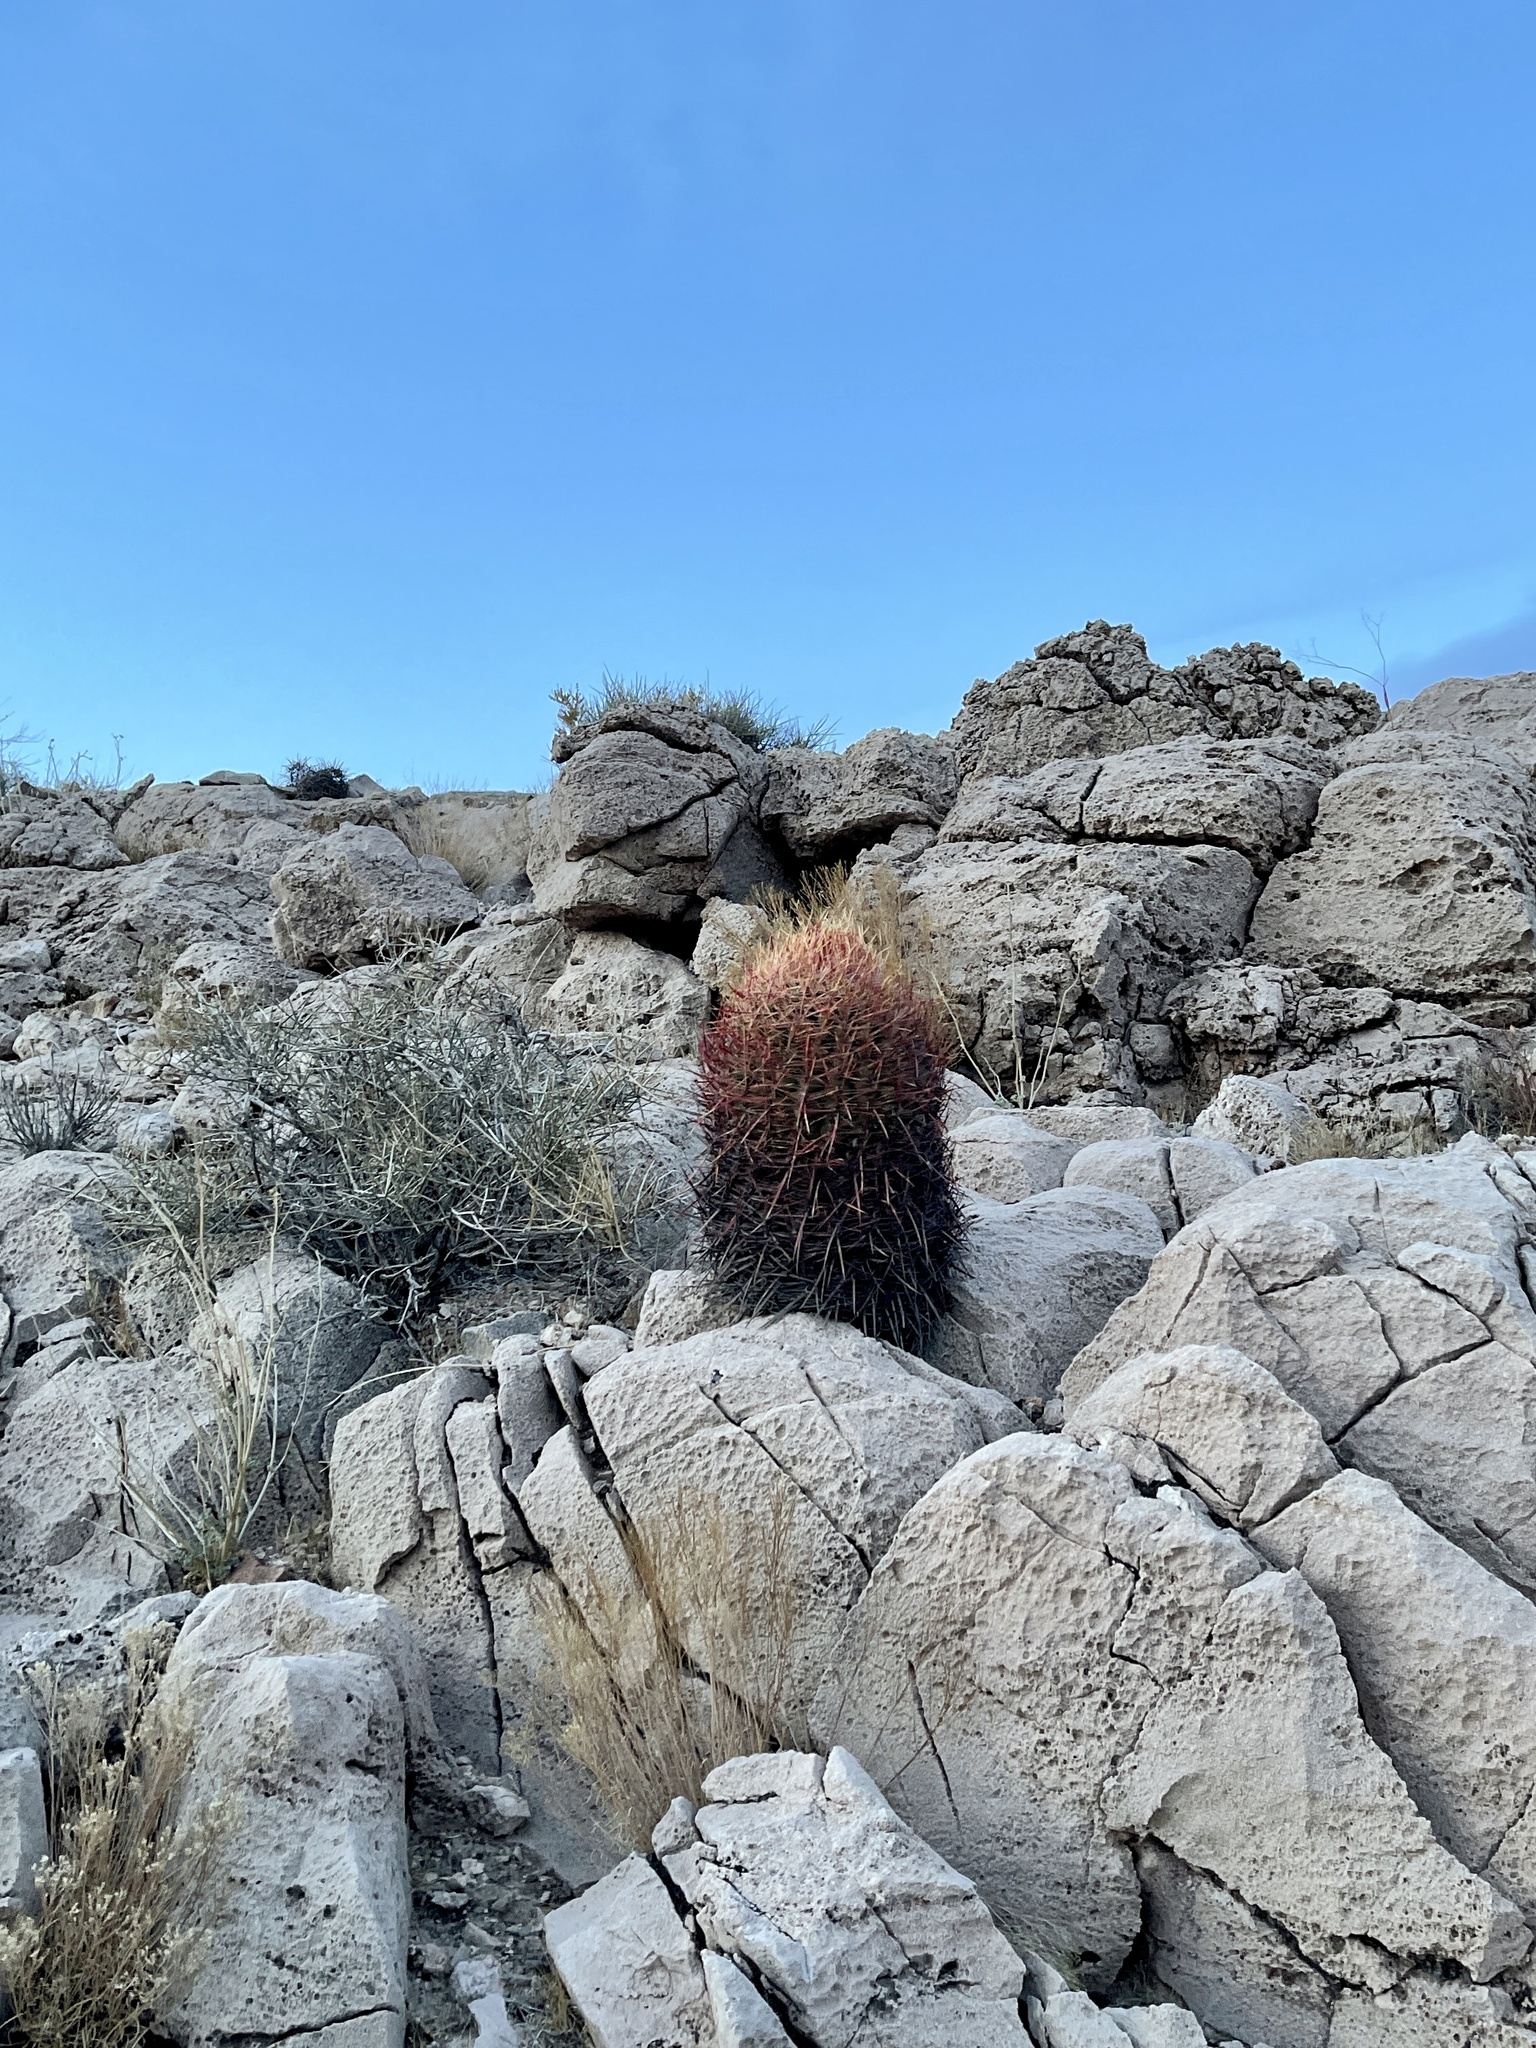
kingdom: Plantae
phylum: Tracheophyta
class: Magnoliopsida
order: Caryophyllales
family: Cactaceae
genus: Ferocactus
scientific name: Ferocactus cylindraceus
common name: California barrel cactus
